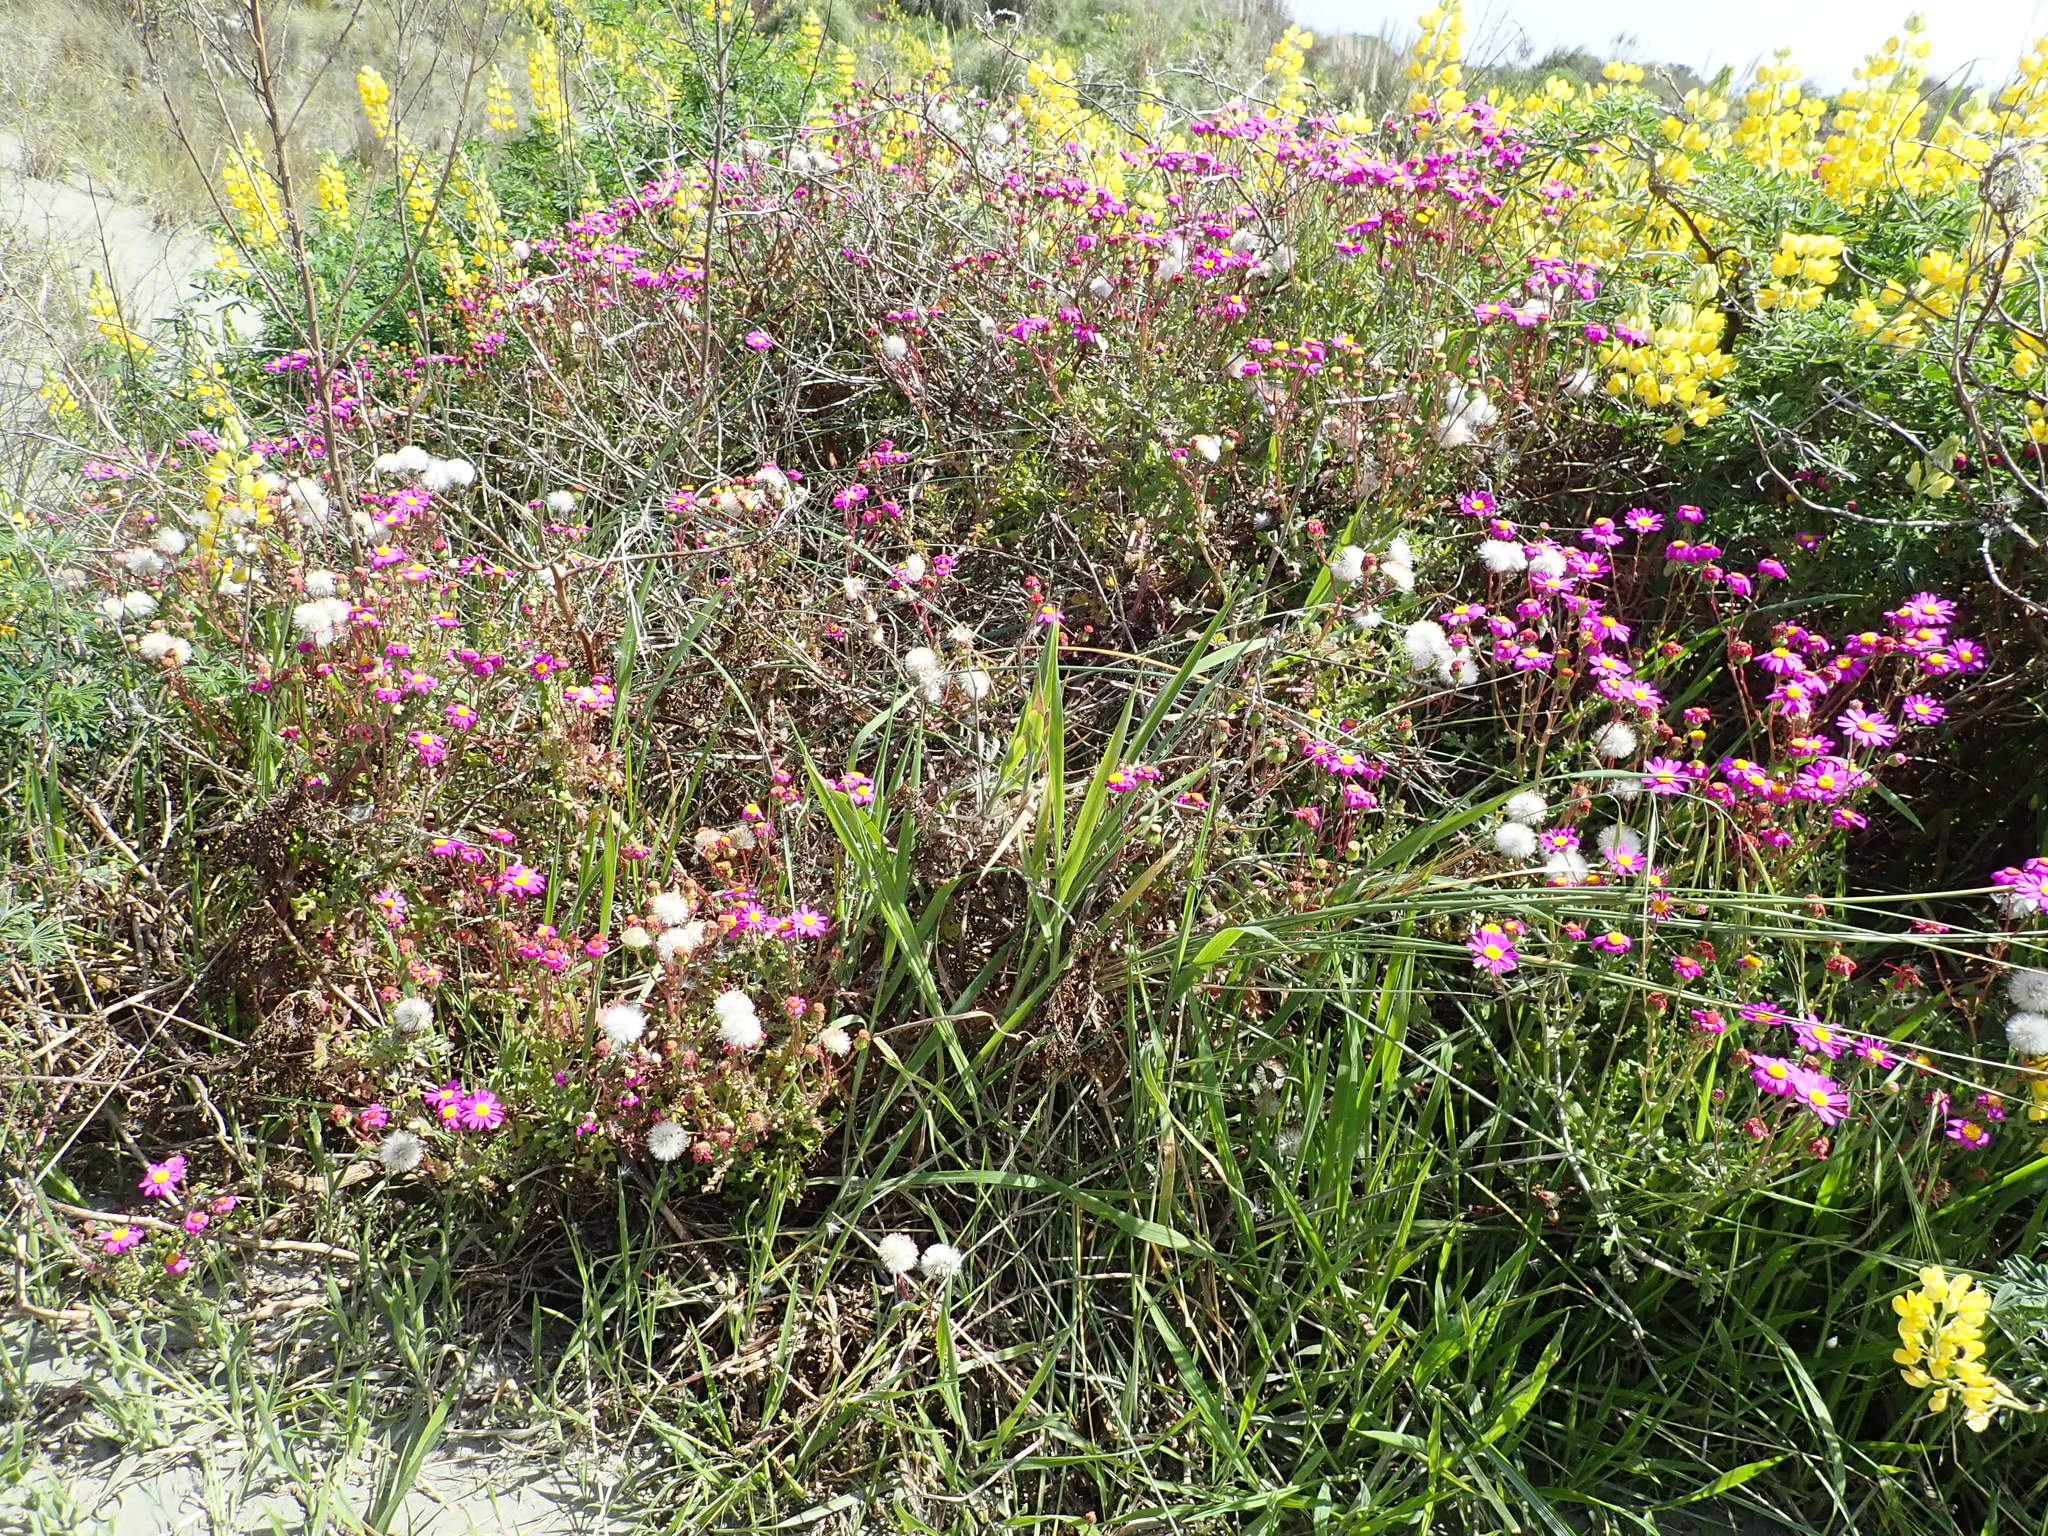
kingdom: Plantae
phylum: Tracheophyta
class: Magnoliopsida
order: Asterales
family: Asteraceae
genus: Senecio
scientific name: Senecio elegans
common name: Purple groundsel
